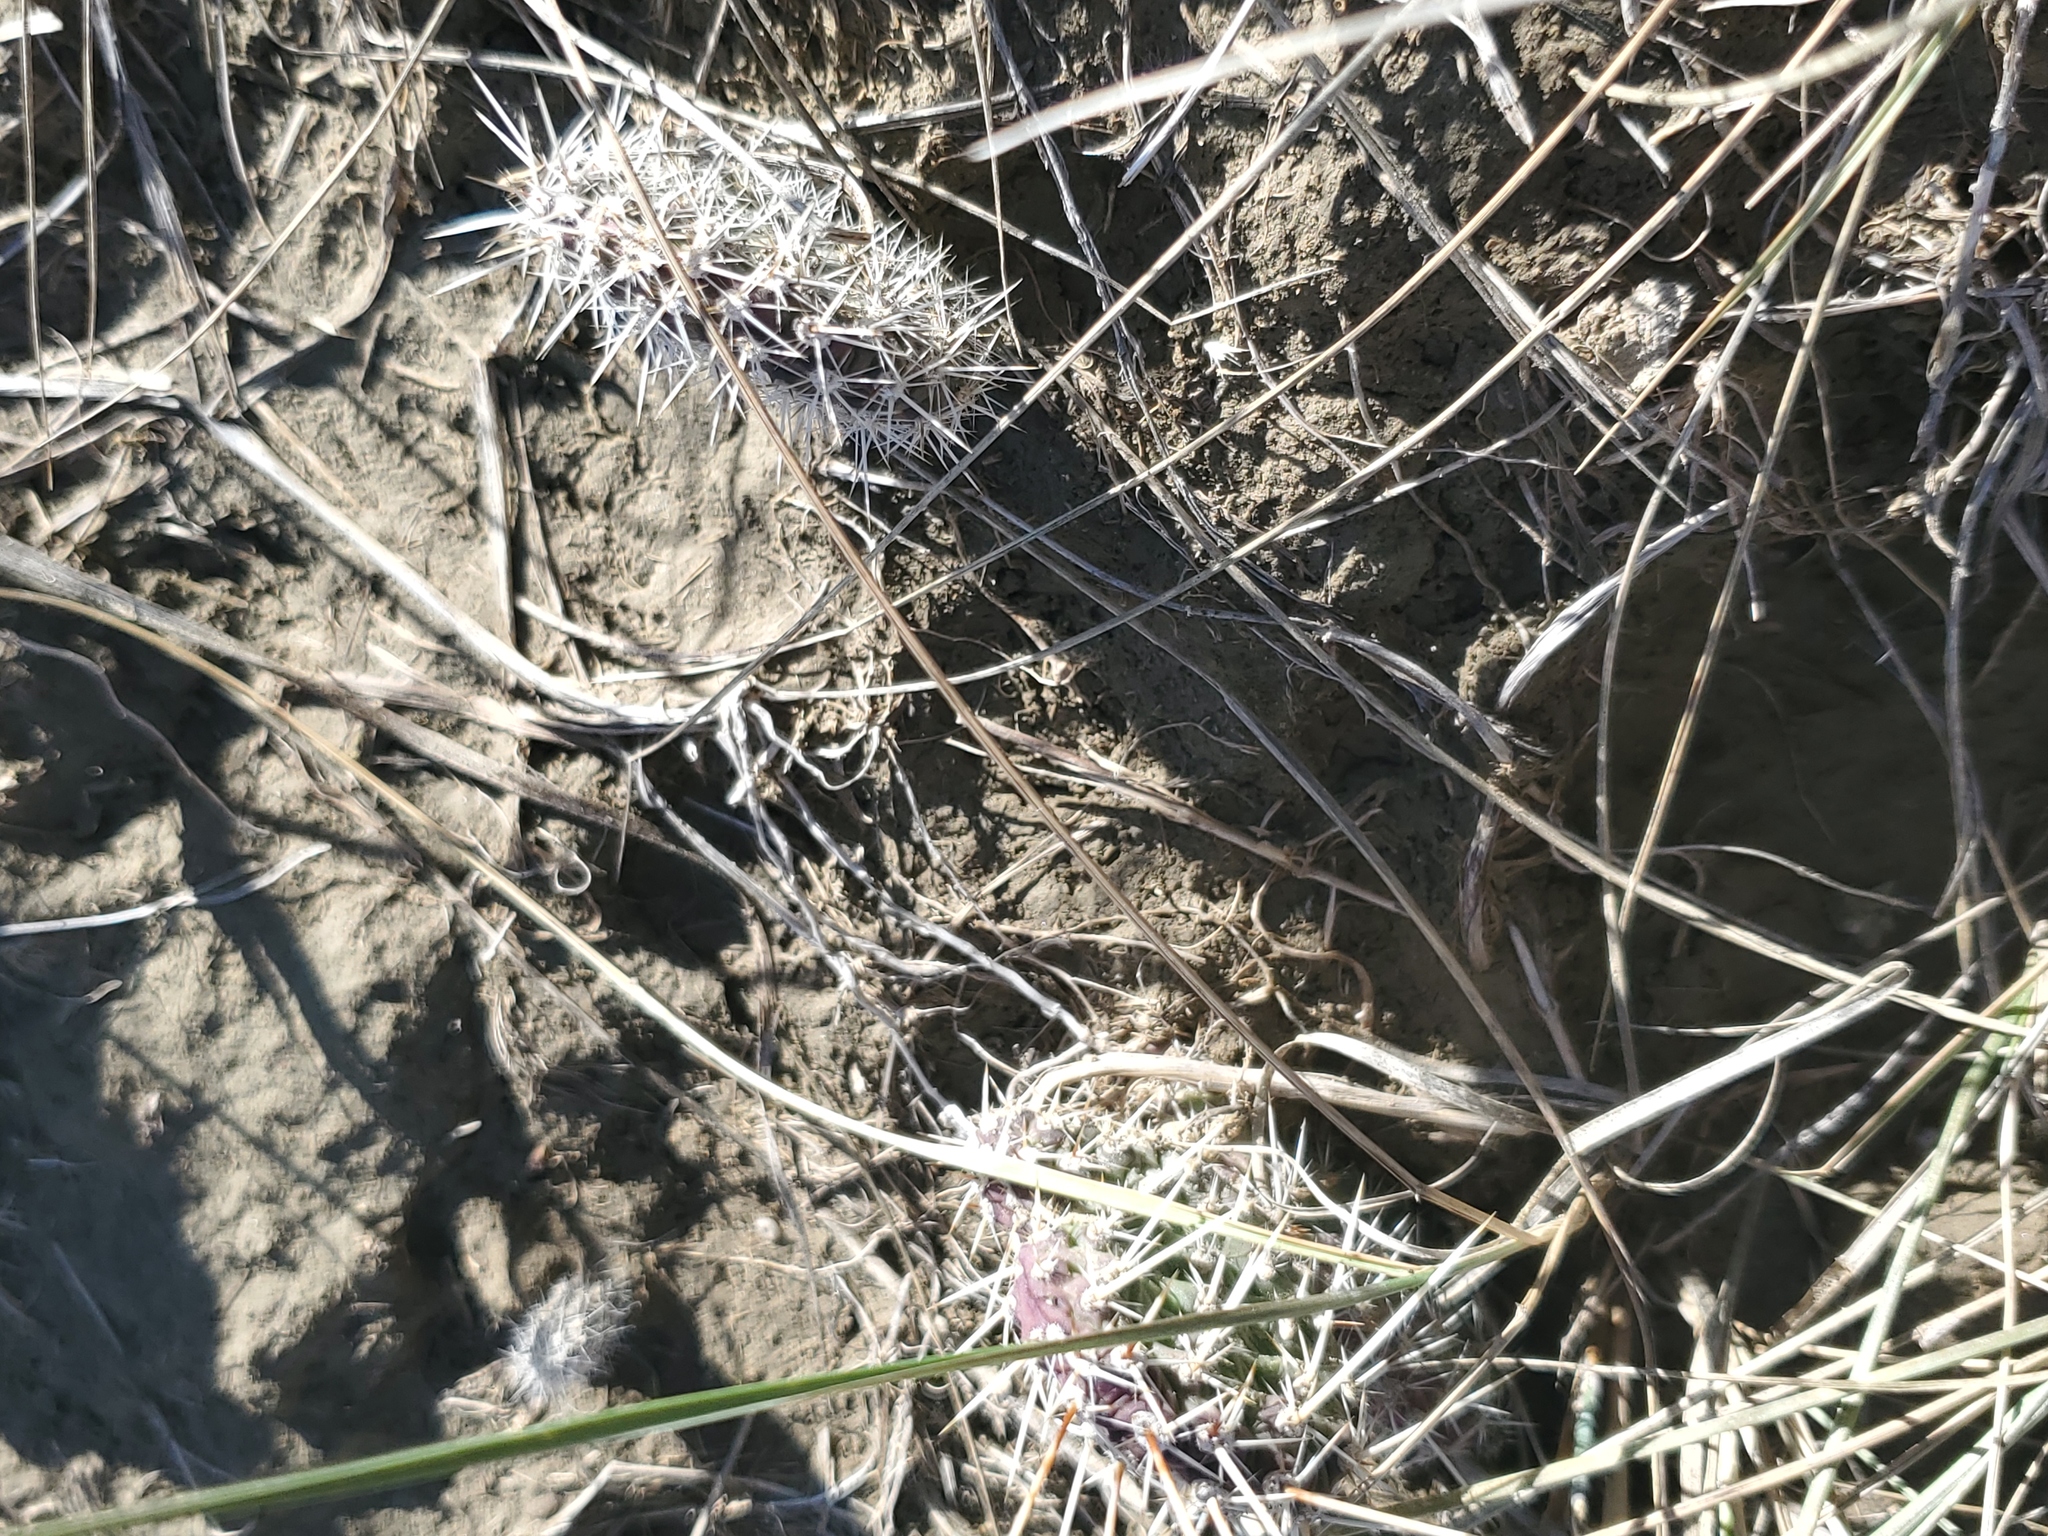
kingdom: Plantae
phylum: Tracheophyta
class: Magnoliopsida
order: Caryophyllales
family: Cactaceae
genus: Opuntia
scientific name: Opuntia polyacantha
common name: Plains prickly-pear
